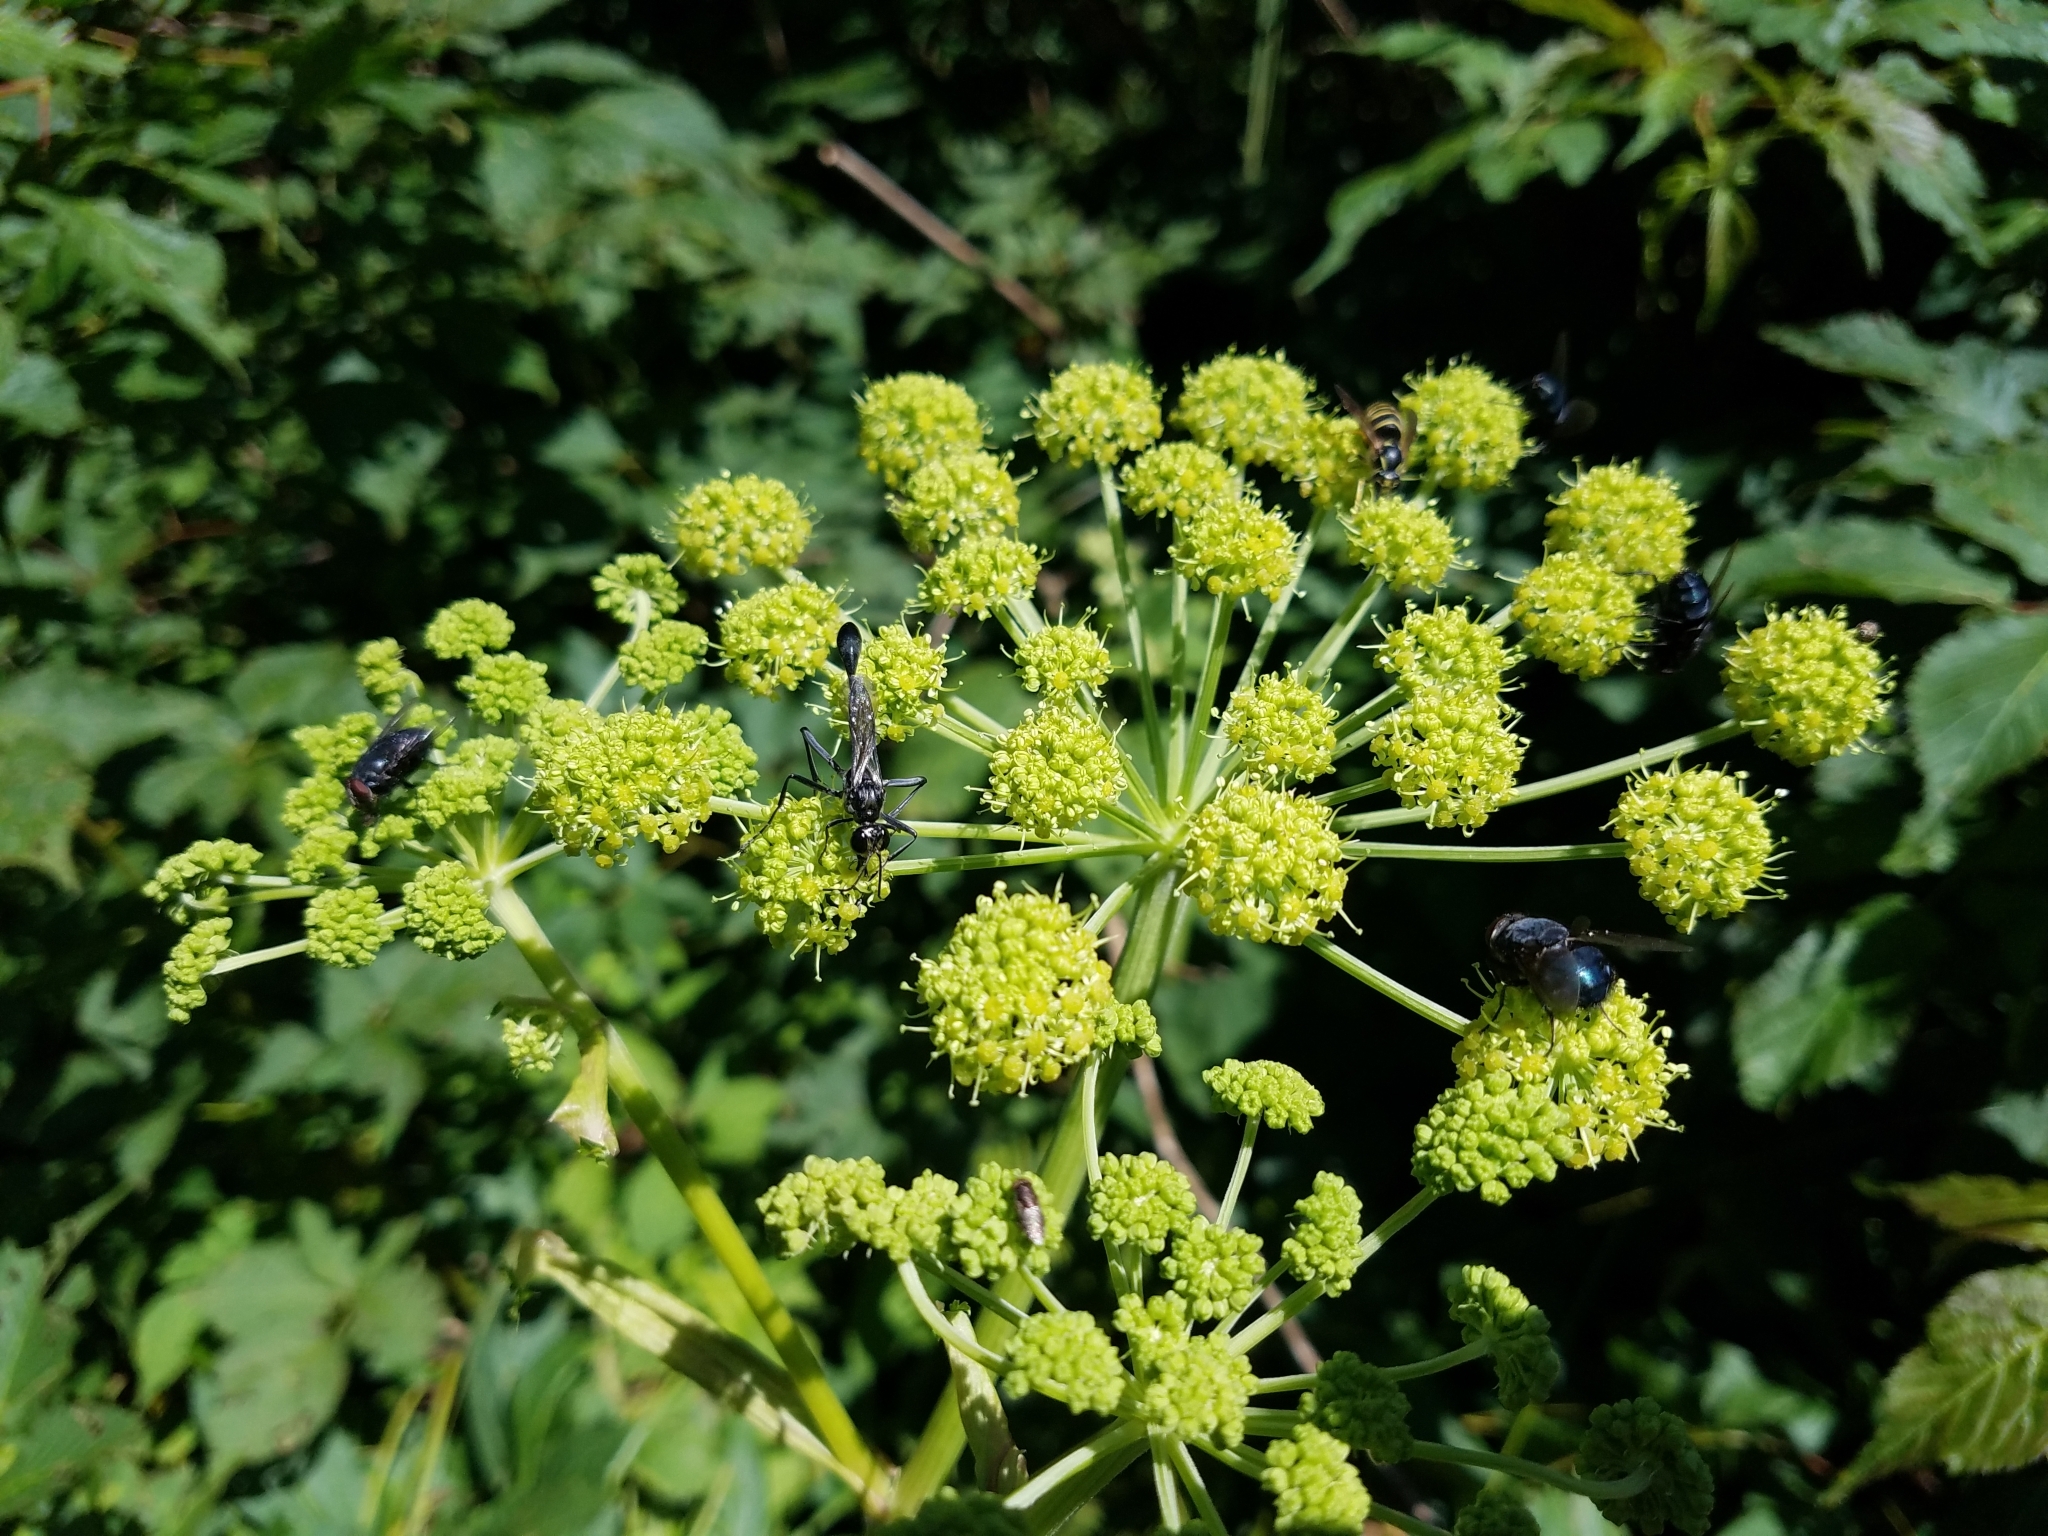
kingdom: Animalia
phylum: Arthropoda
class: Insecta
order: Hymenoptera
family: Sphecidae
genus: Eremnophila
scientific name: Eremnophila aureonotata
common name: Gold-marked thread-waisted wasp
